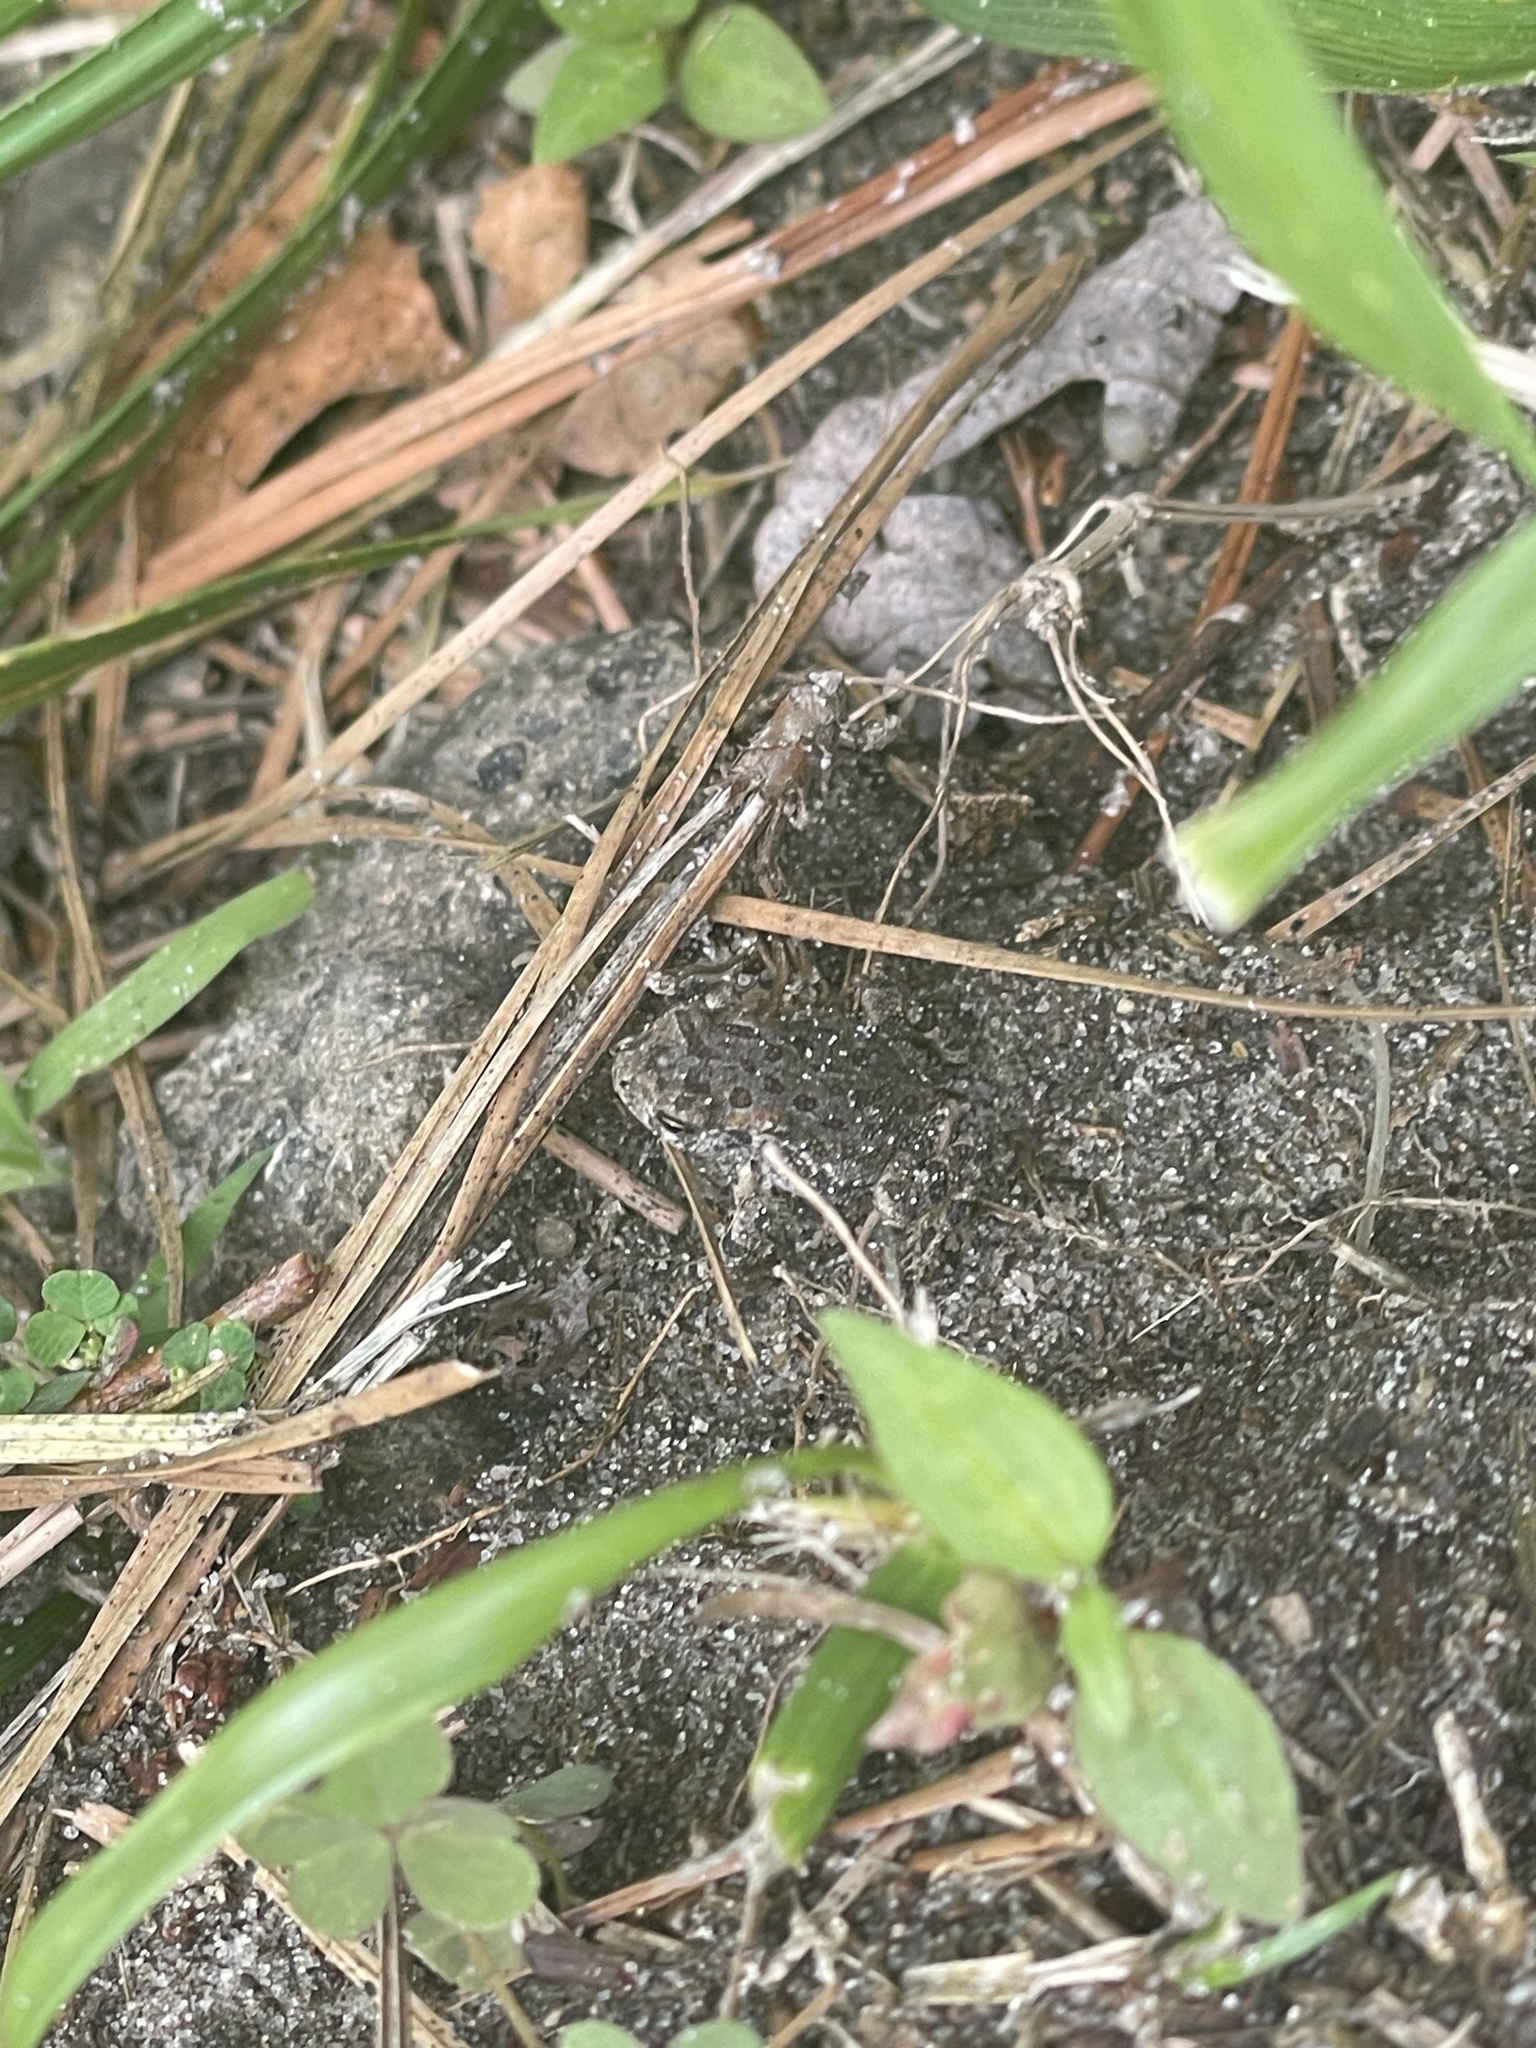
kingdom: Animalia
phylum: Chordata
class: Amphibia
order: Anura
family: Bufonidae
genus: Anaxyrus
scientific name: Anaxyrus fowleri
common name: Fowler's toad
